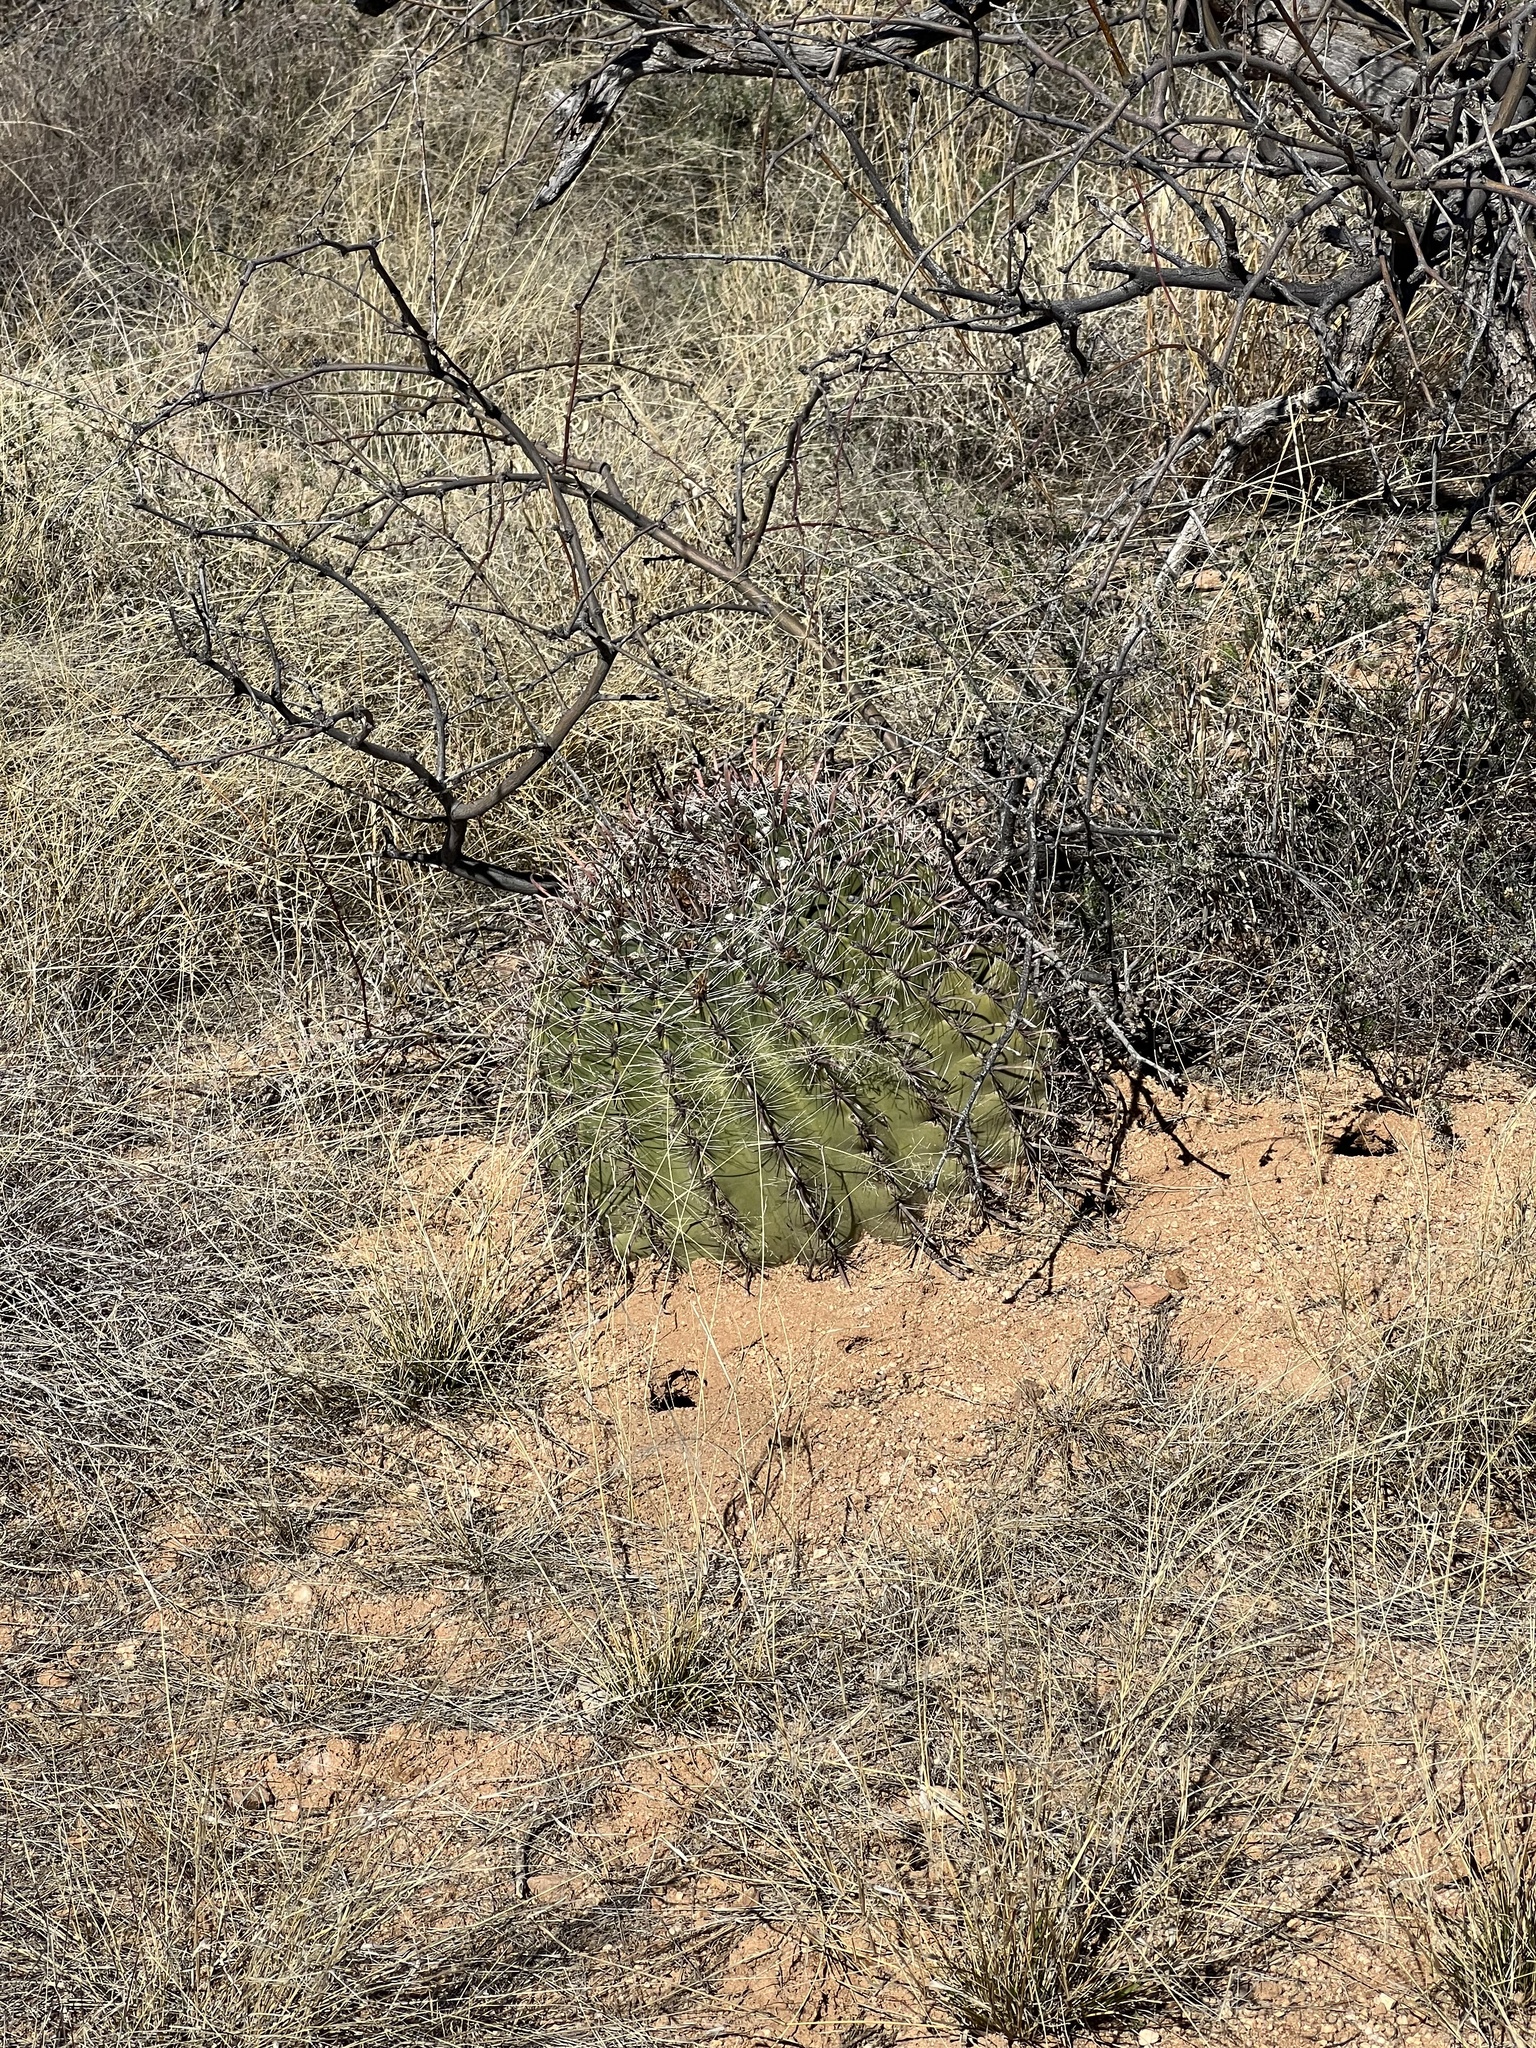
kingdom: Plantae
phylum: Tracheophyta
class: Magnoliopsida
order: Caryophyllales
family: Cactaceae
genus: Ferocactus
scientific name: Ferocactus wislizeni
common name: Candy barrel cactus
